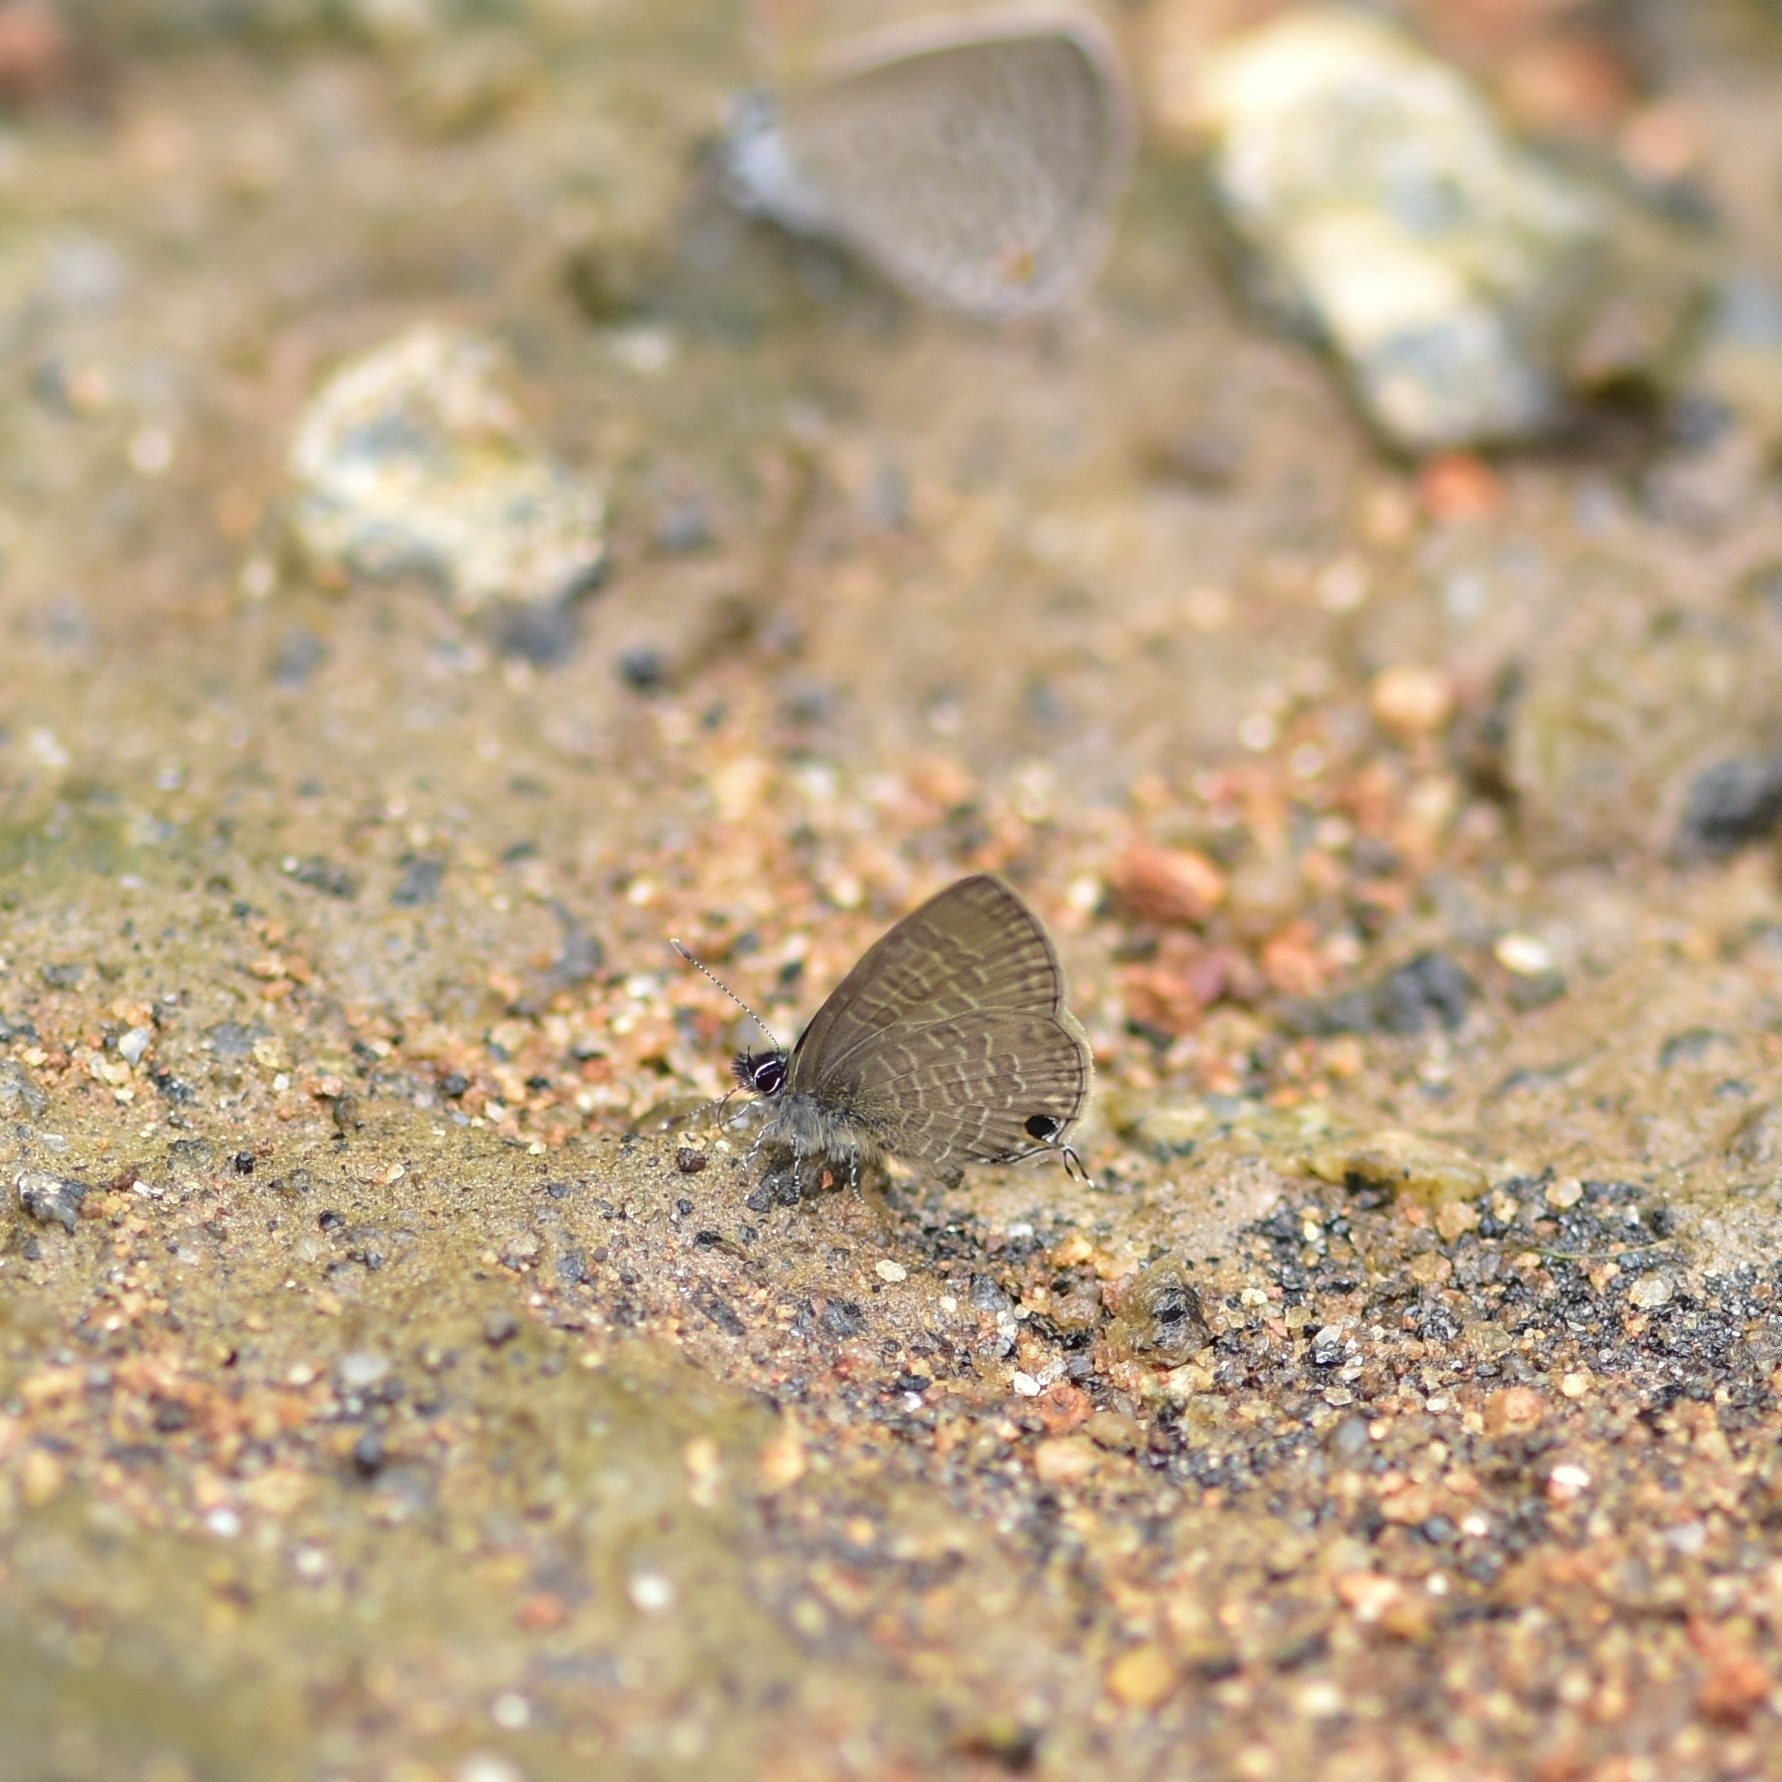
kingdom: Animalia
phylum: Arthropoda
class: Insecta
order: Lepidoptera
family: Lycaenidae
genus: Prosotas
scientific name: Prosotas nora
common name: Common line blue
